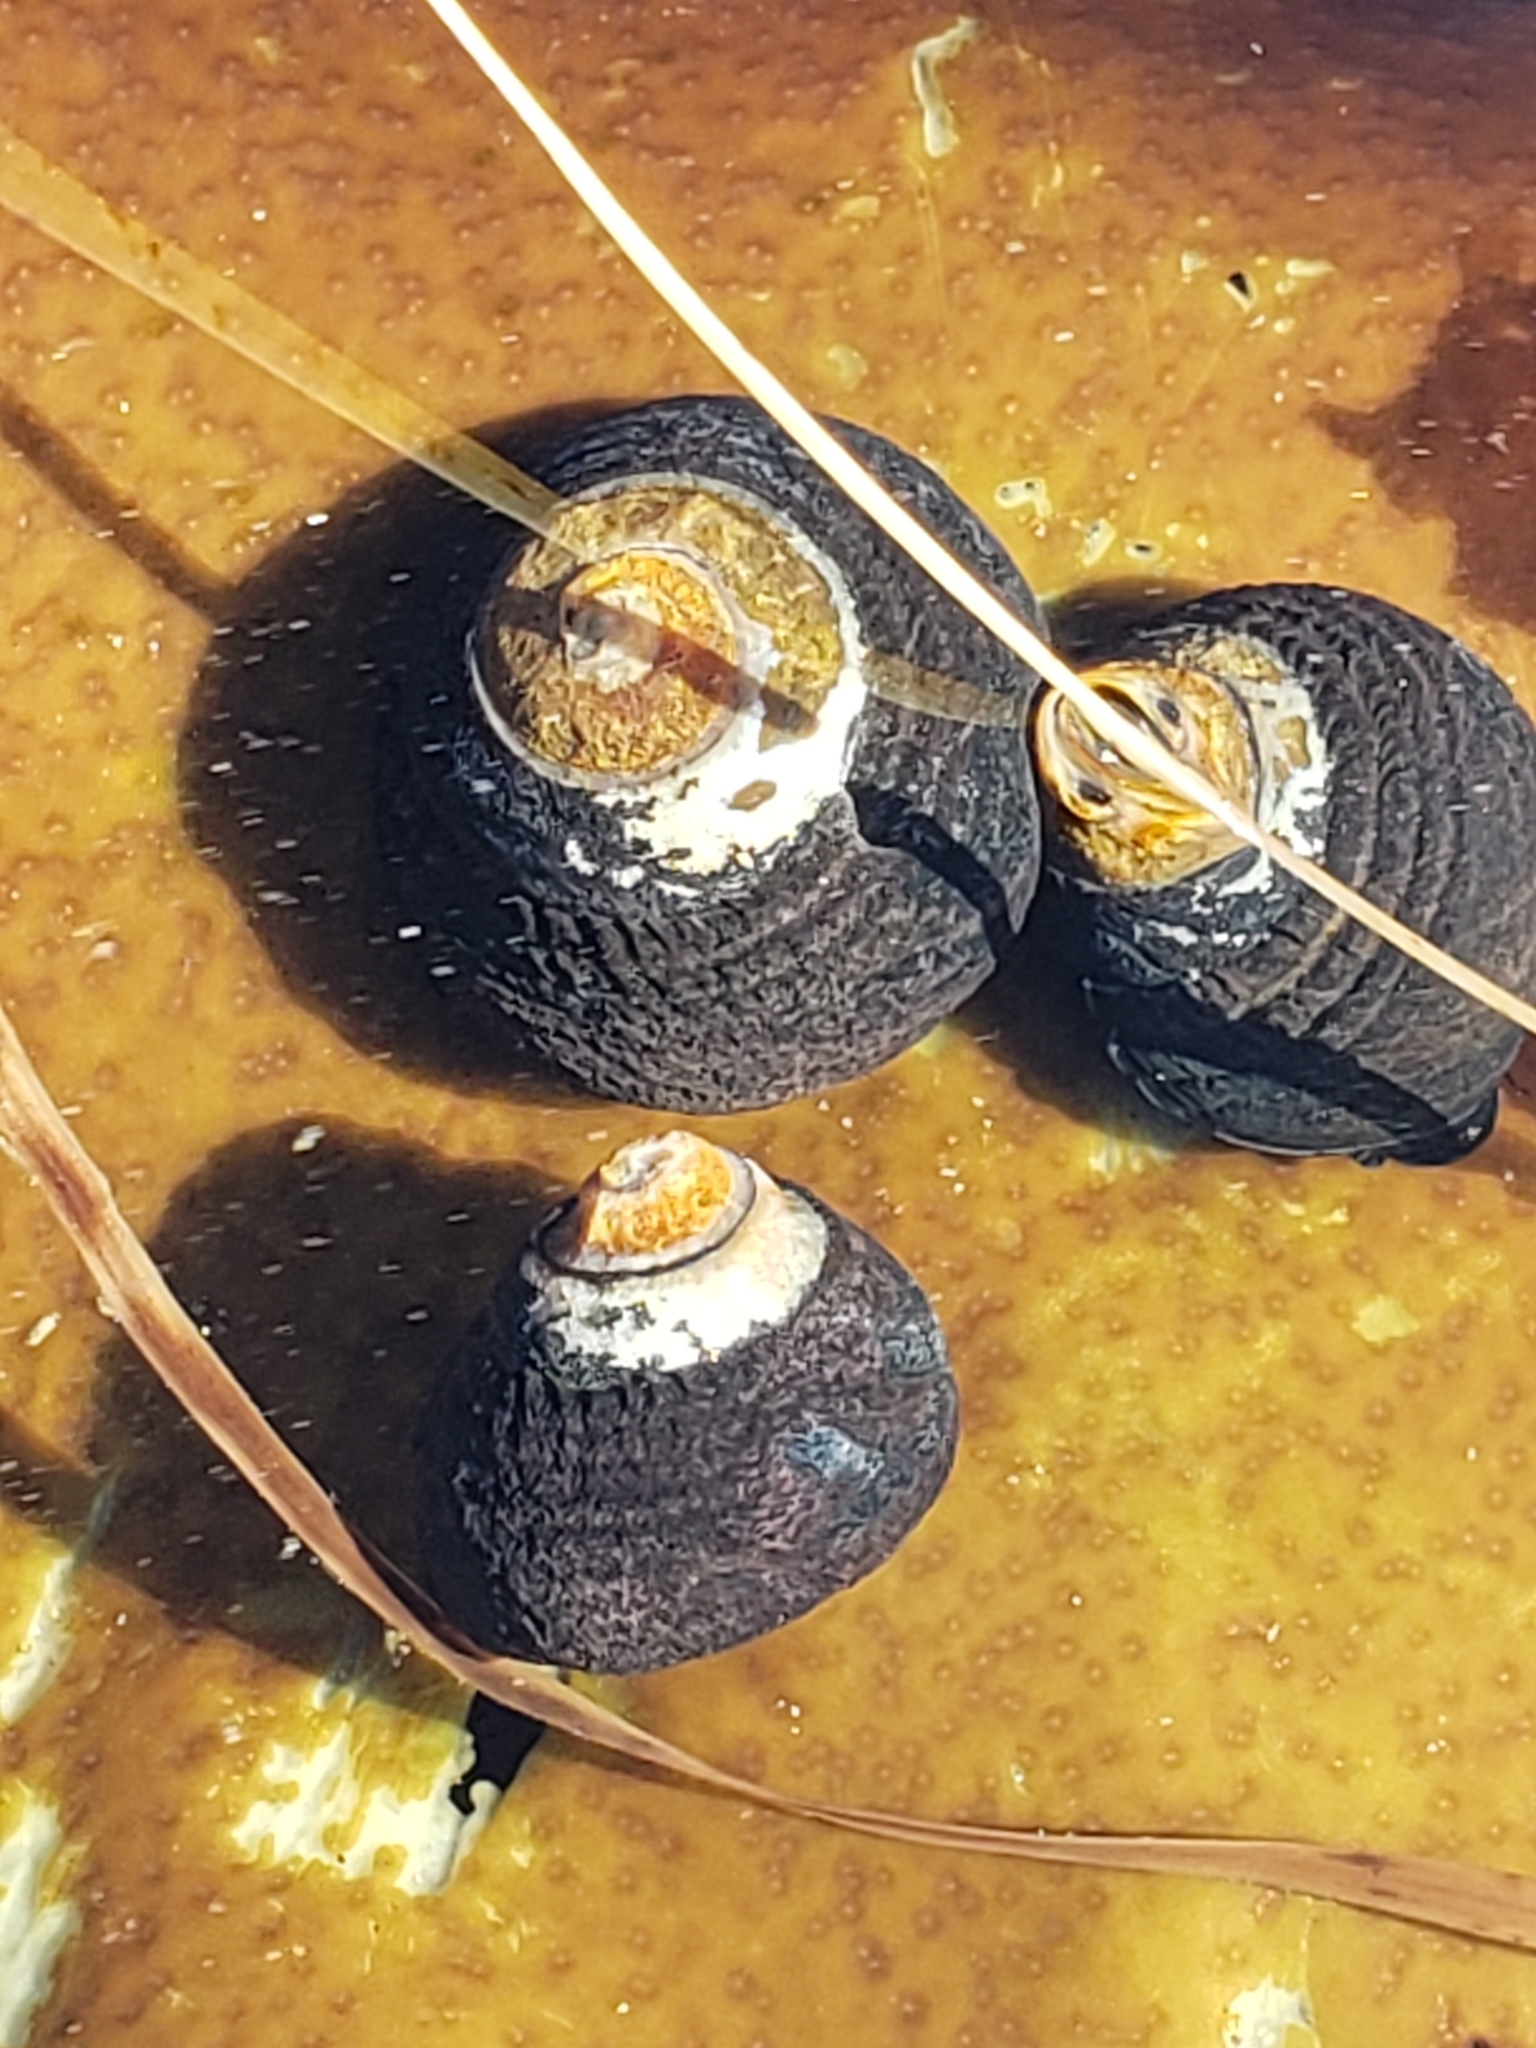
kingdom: Animalia
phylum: Mollusca
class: Gastropoda
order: Trochida
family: Tegulidae
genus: Tegula
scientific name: Tegula funebralis
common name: Black tegula
